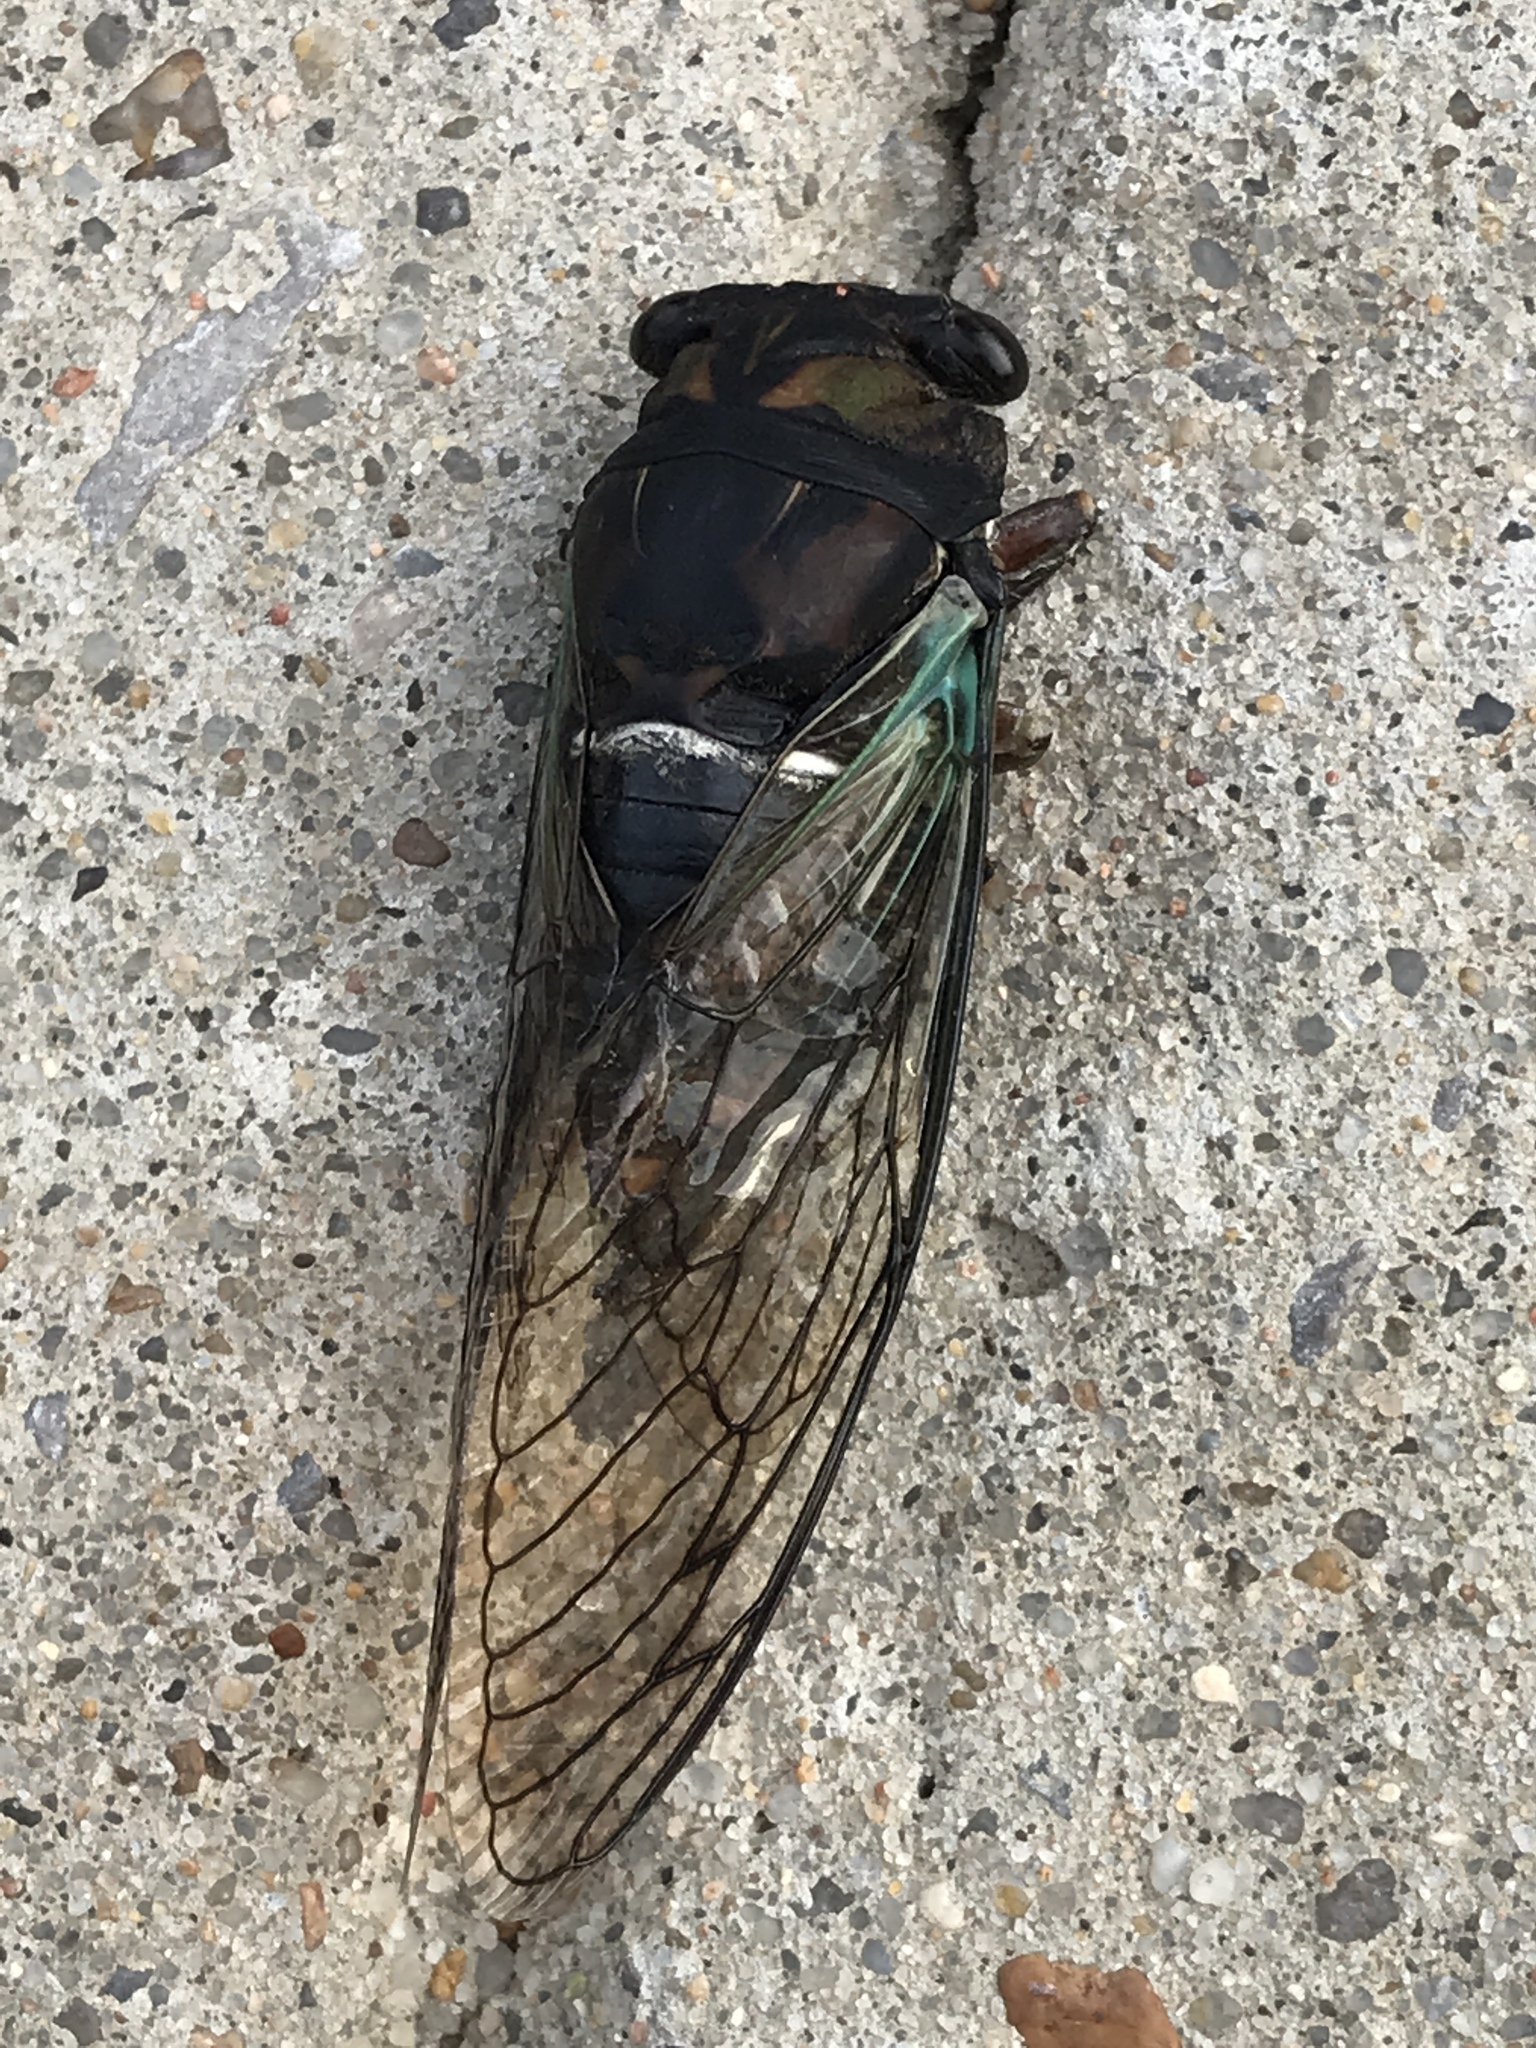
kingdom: Animalia
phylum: Arthropoda
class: Insecta
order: Hemiptera
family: Cicadidae
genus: Neotibicen
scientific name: Neotibicen lyricen
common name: Lyric cicada
